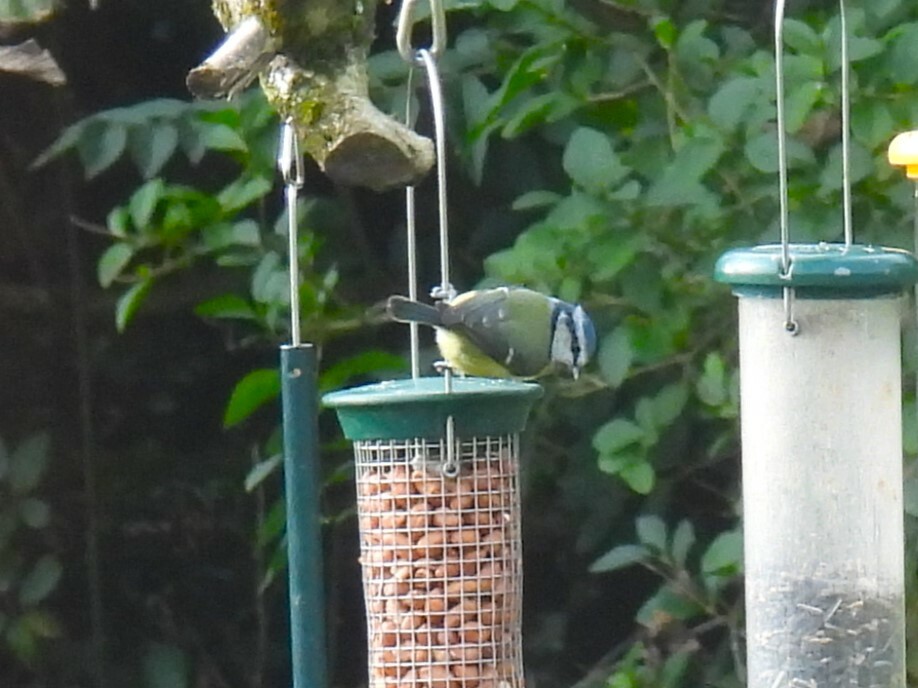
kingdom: Animalia
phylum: Chordata
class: Aves
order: Passeriformes
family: Paridae
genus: Cyanistes
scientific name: Cyanistes caeruleus
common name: Eurasian blue tit
